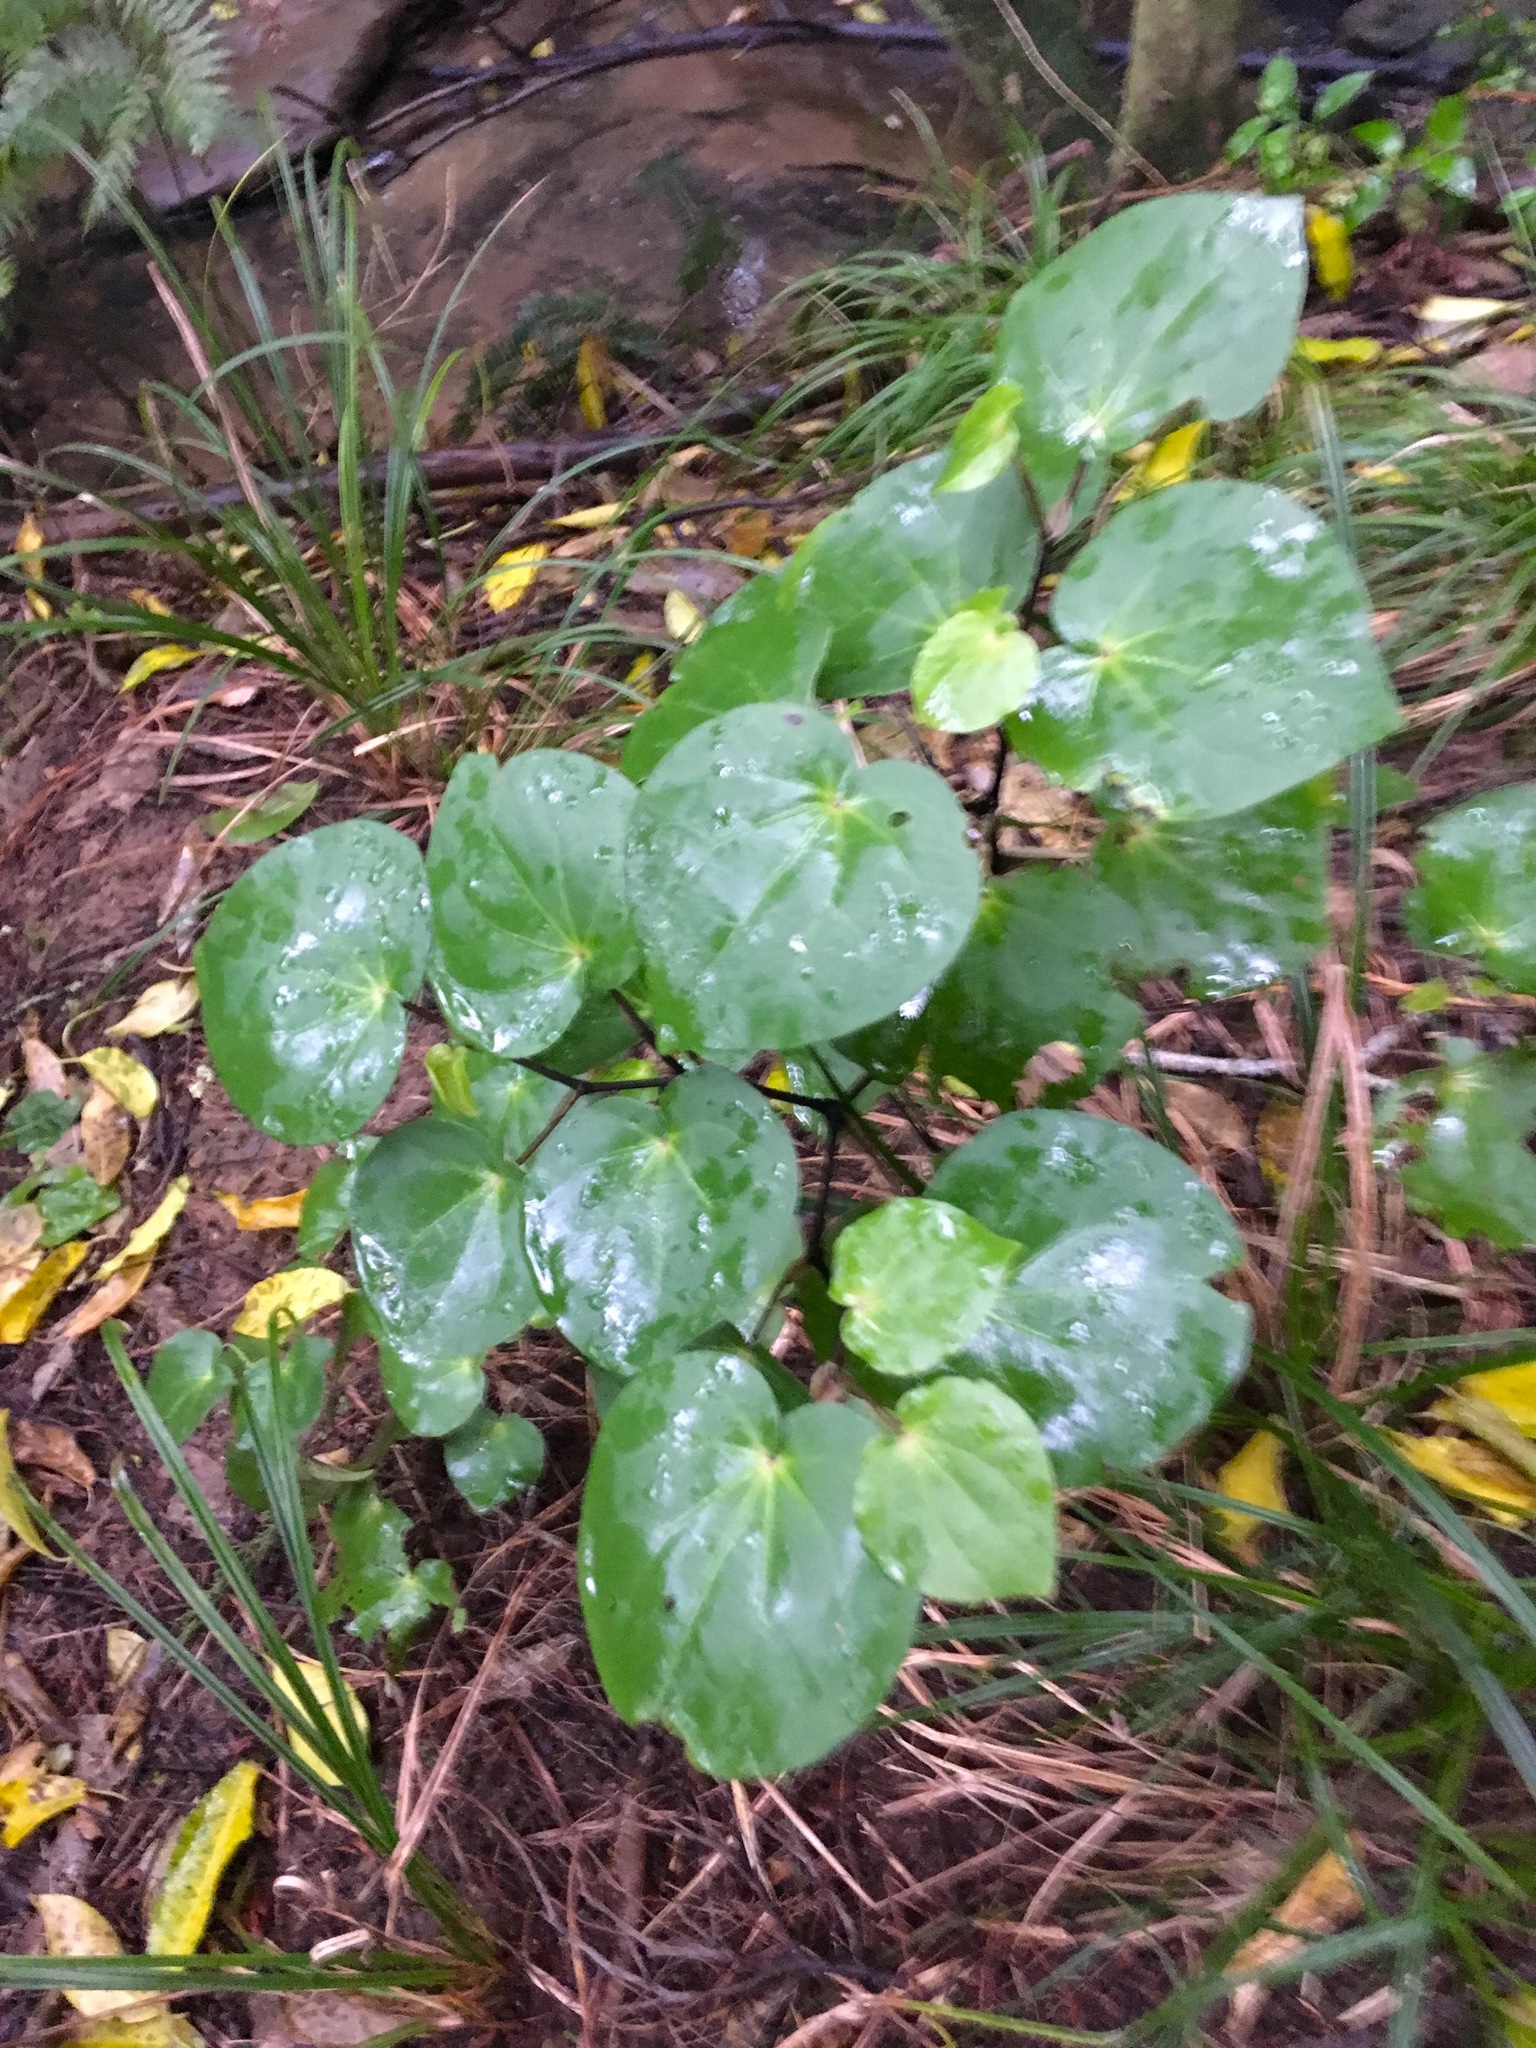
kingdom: Plantae
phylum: Tracheophyta
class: Magnoliopsida
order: Piperales
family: Piperaceae
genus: Macropiper
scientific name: Macropiper excelsum
